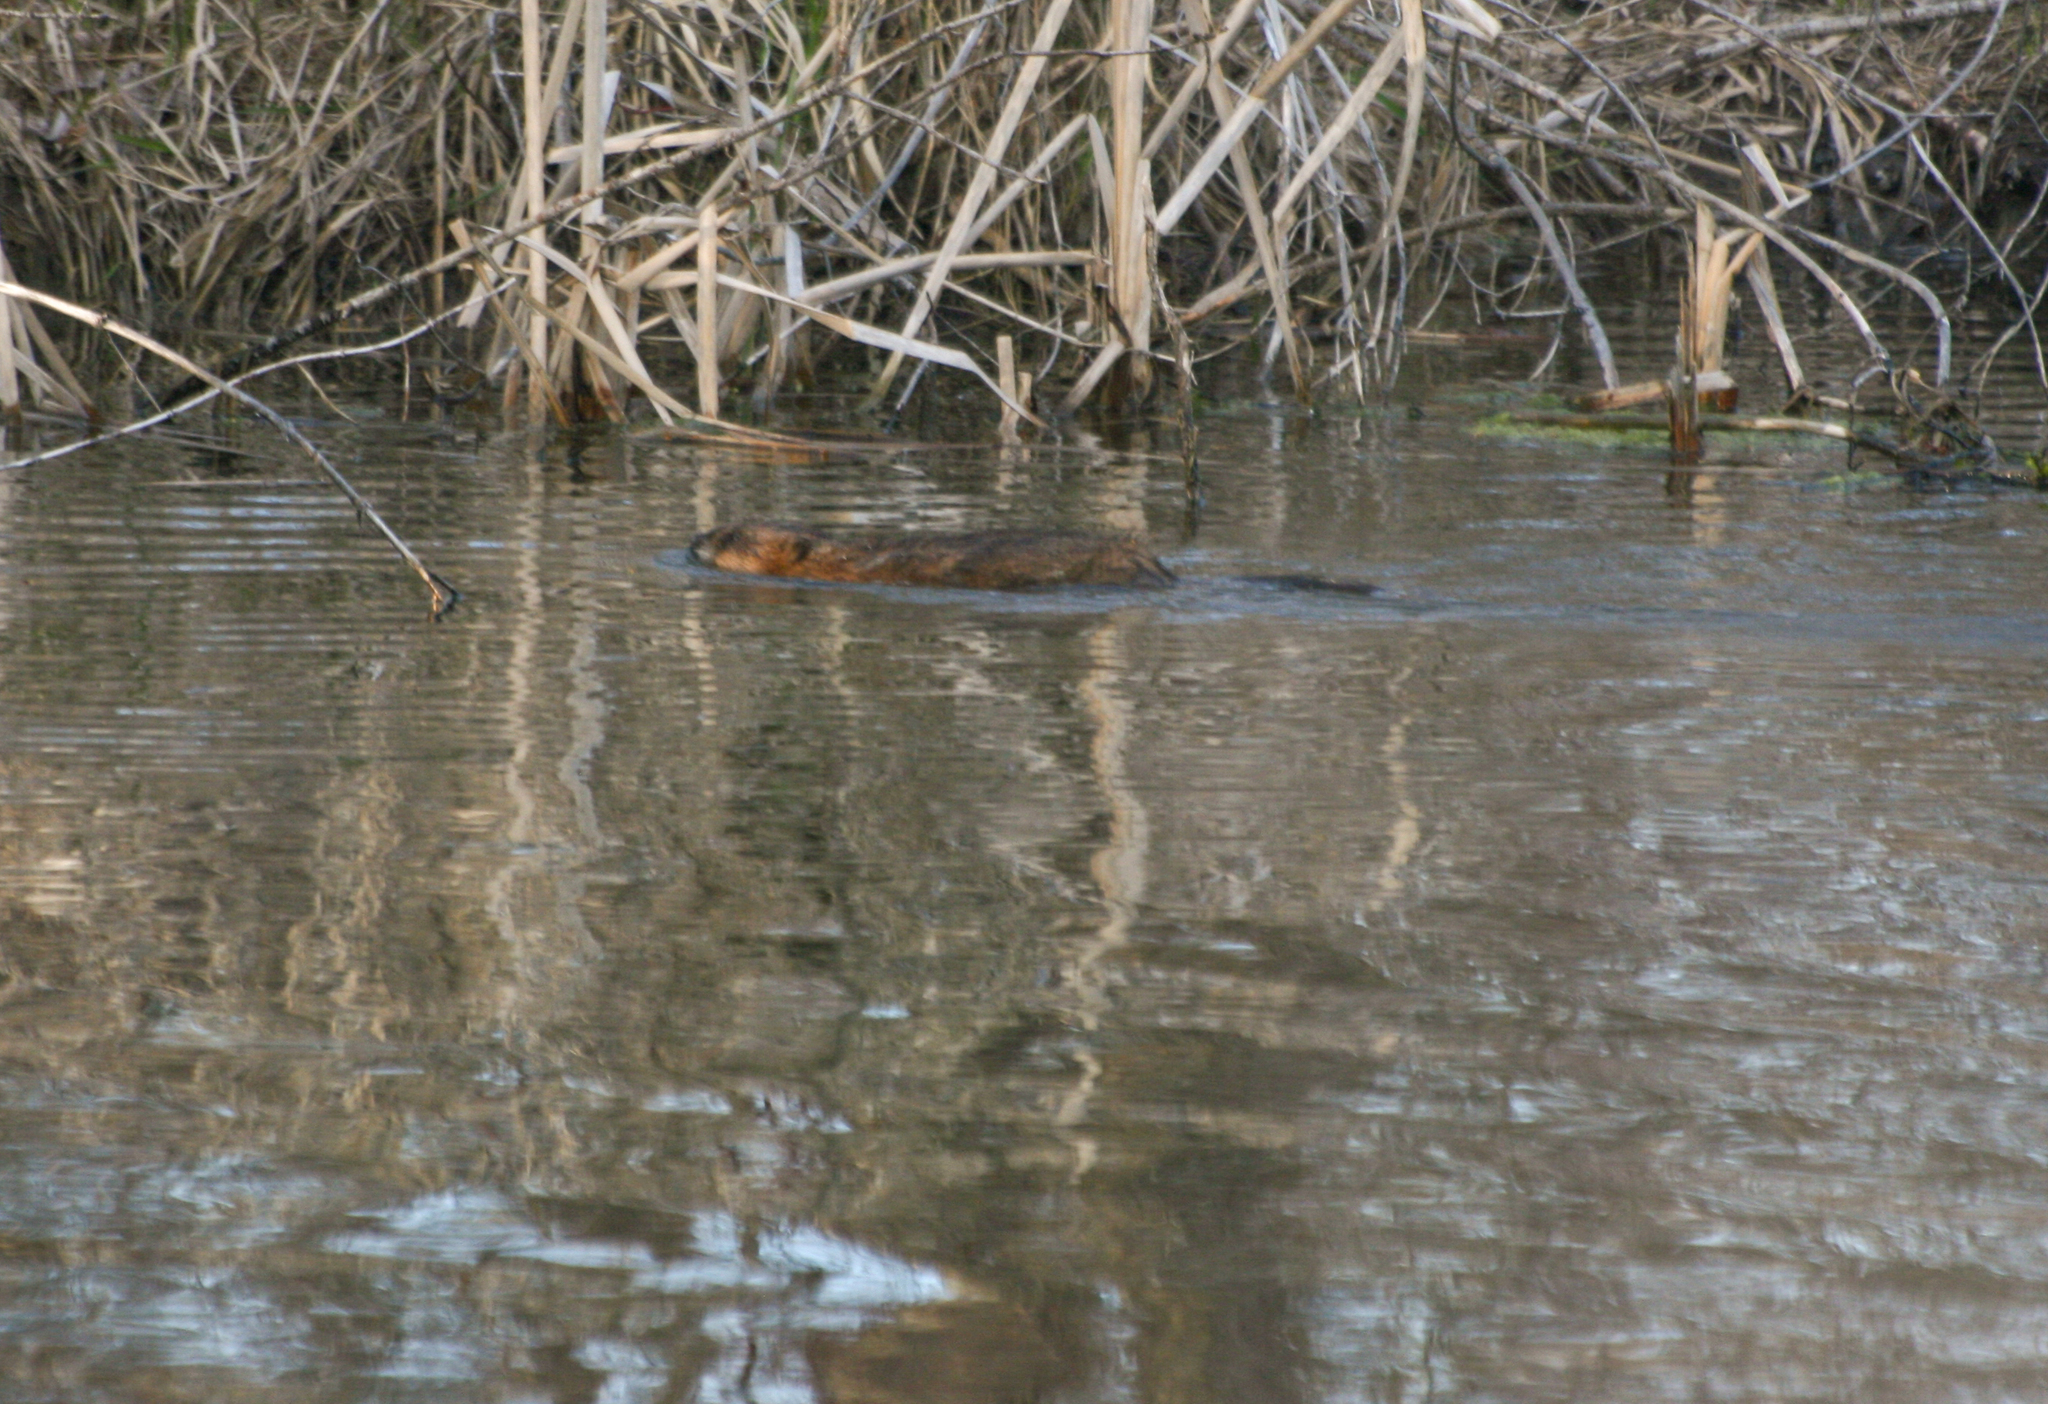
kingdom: Animalia
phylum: Chordata
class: Mammalia
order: Rodentia
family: Cricetidae
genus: Ondatra
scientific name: Ondatra zibethicus
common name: Muskrat
